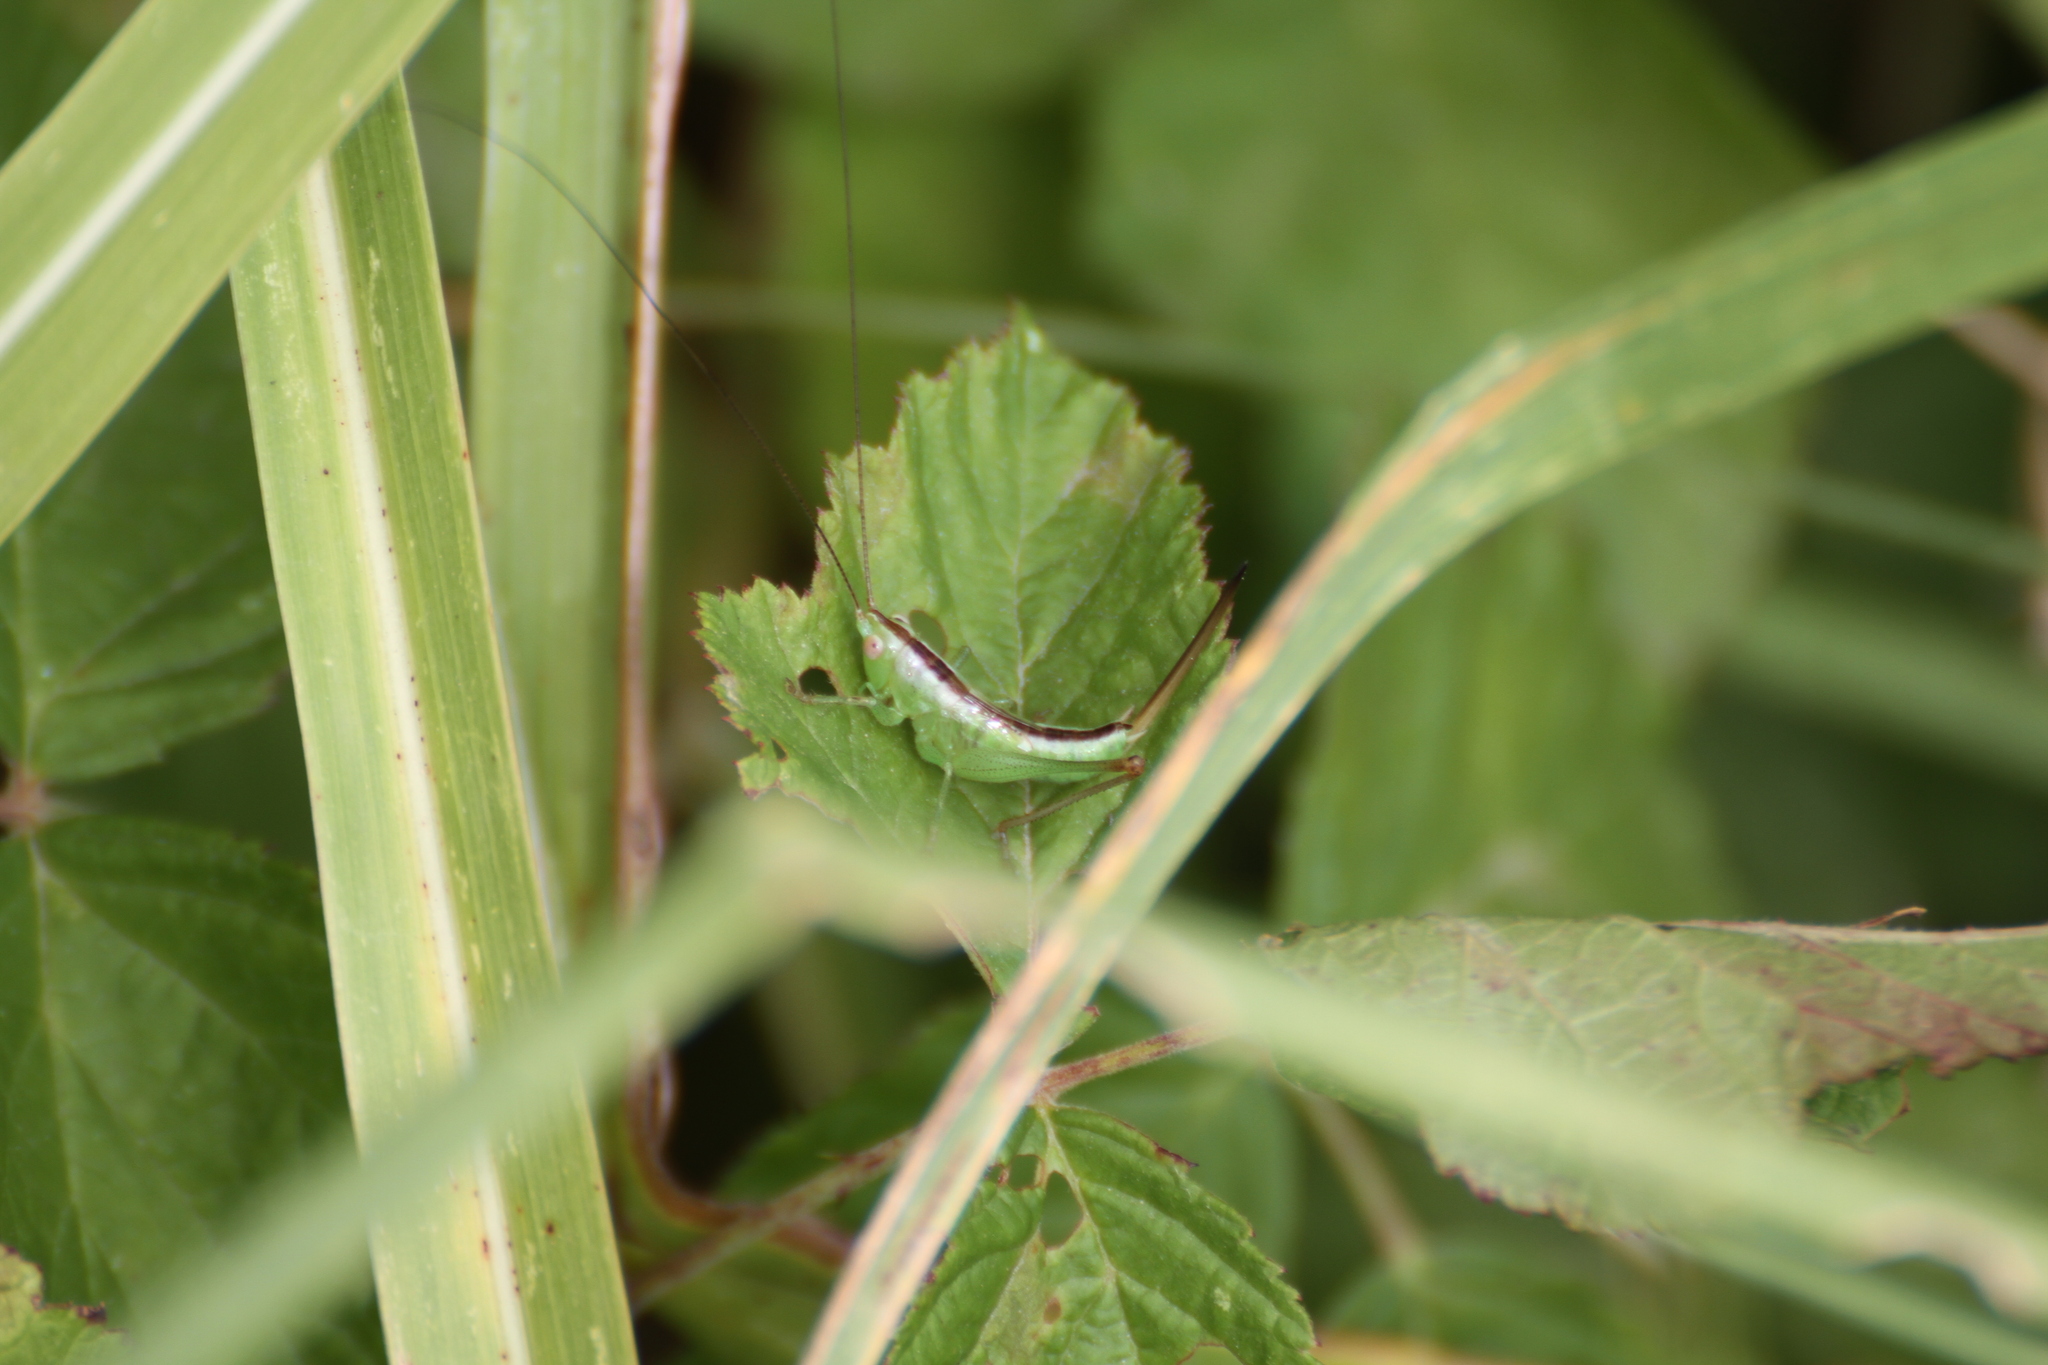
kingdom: Animalia
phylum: Arthropoda
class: Insecta
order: Orthoptera
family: Tettigoniidae
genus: Conocephalus
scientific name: Conocephalus fuscus
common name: Long-winged conehead
